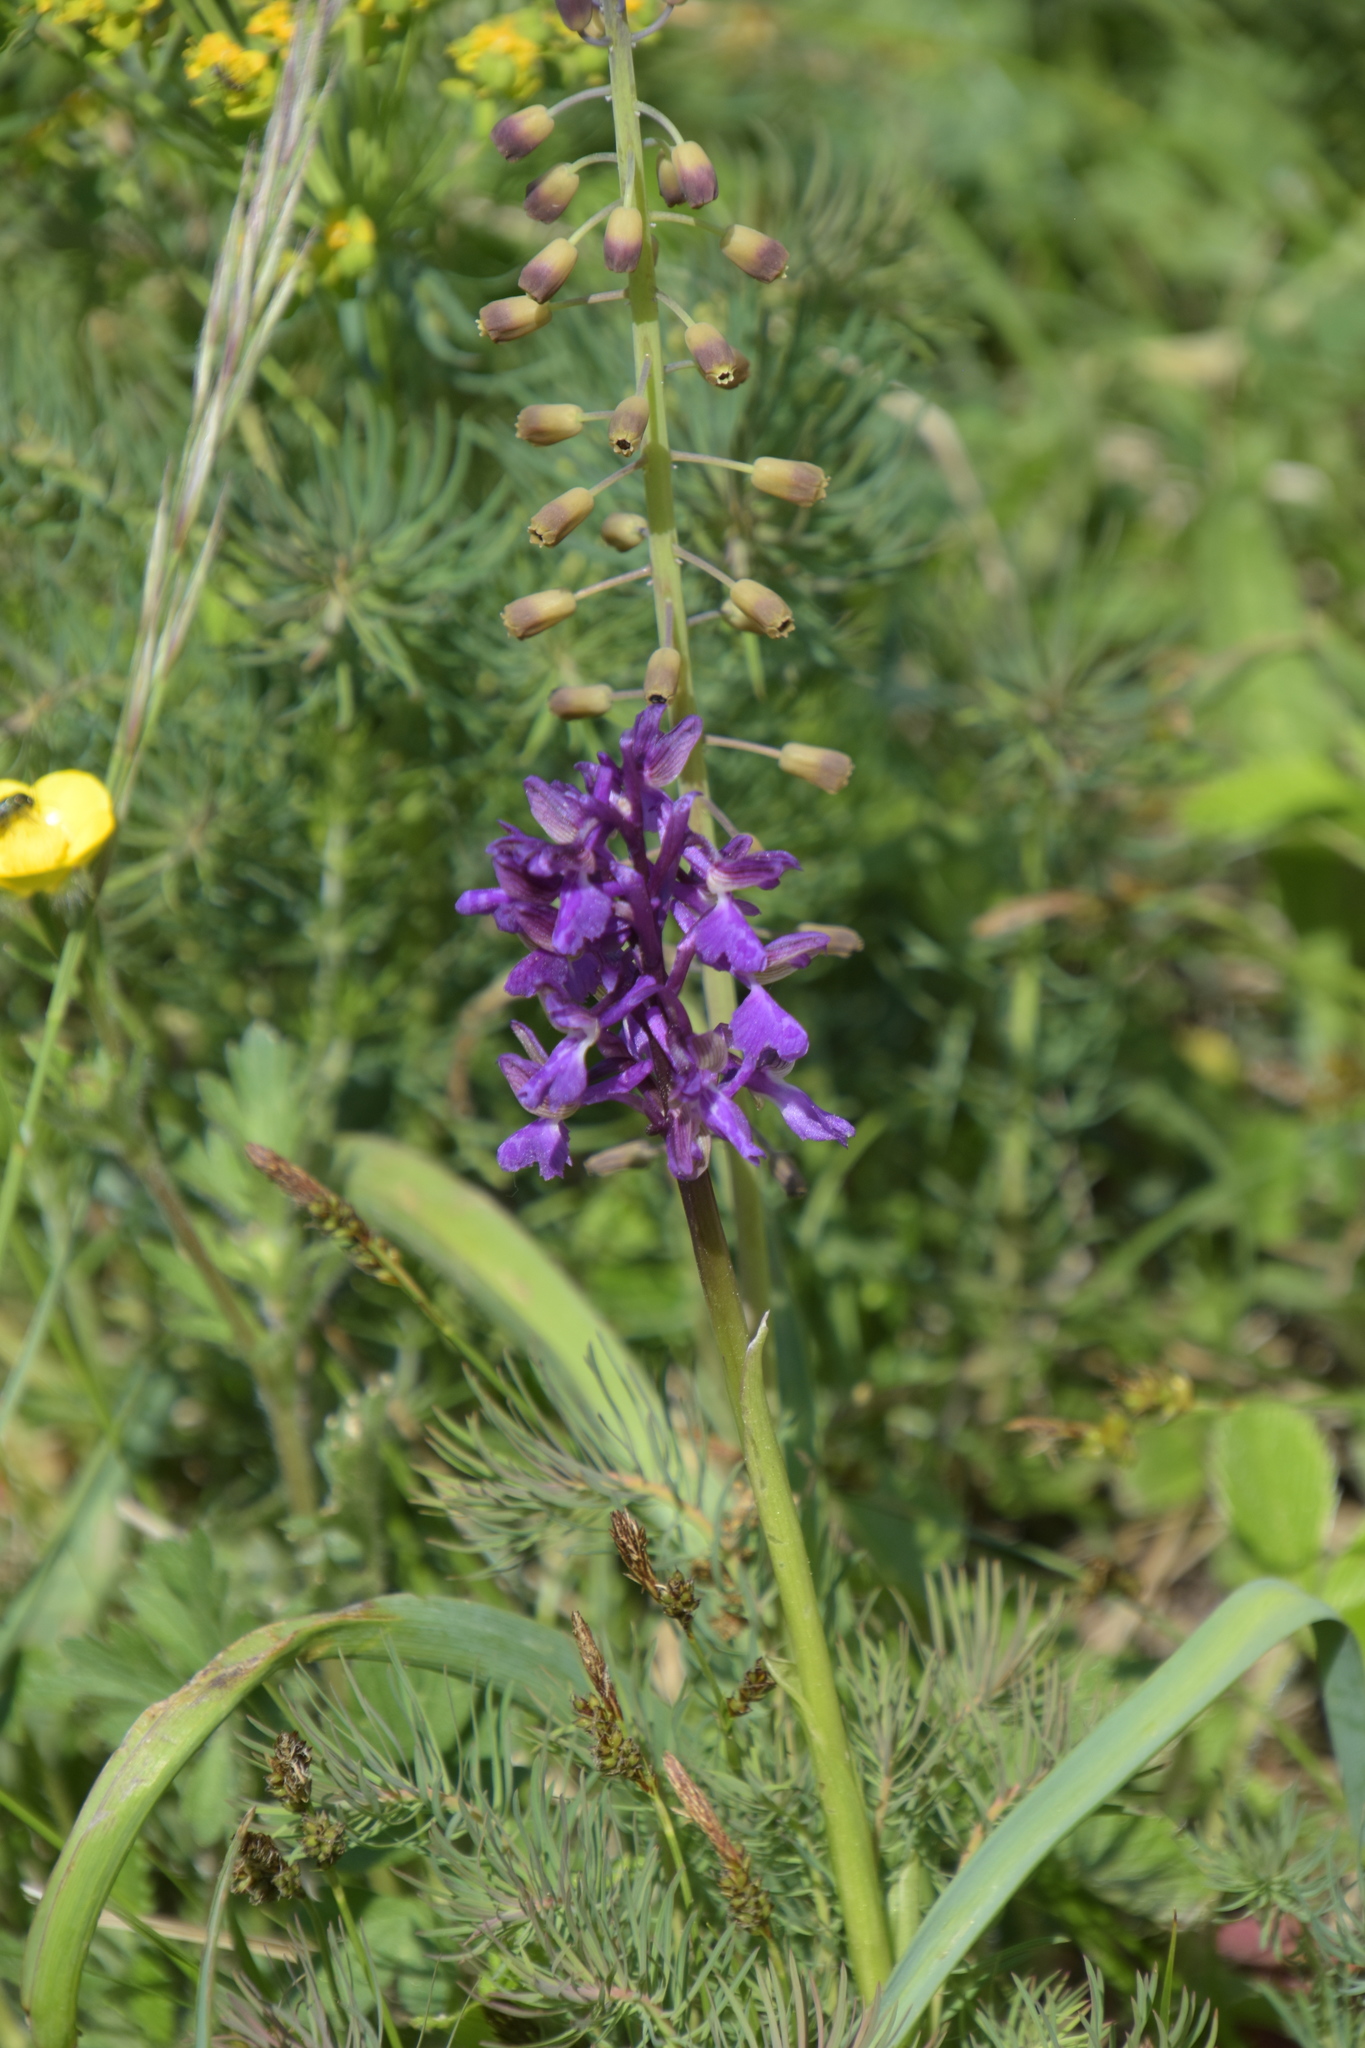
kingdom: Plantae
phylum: Tracheophyta
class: Liliopsida
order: Asparagales
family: Orchidaceae
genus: Anacamptis
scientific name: Anacamptis morio
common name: Green-winged orchid
